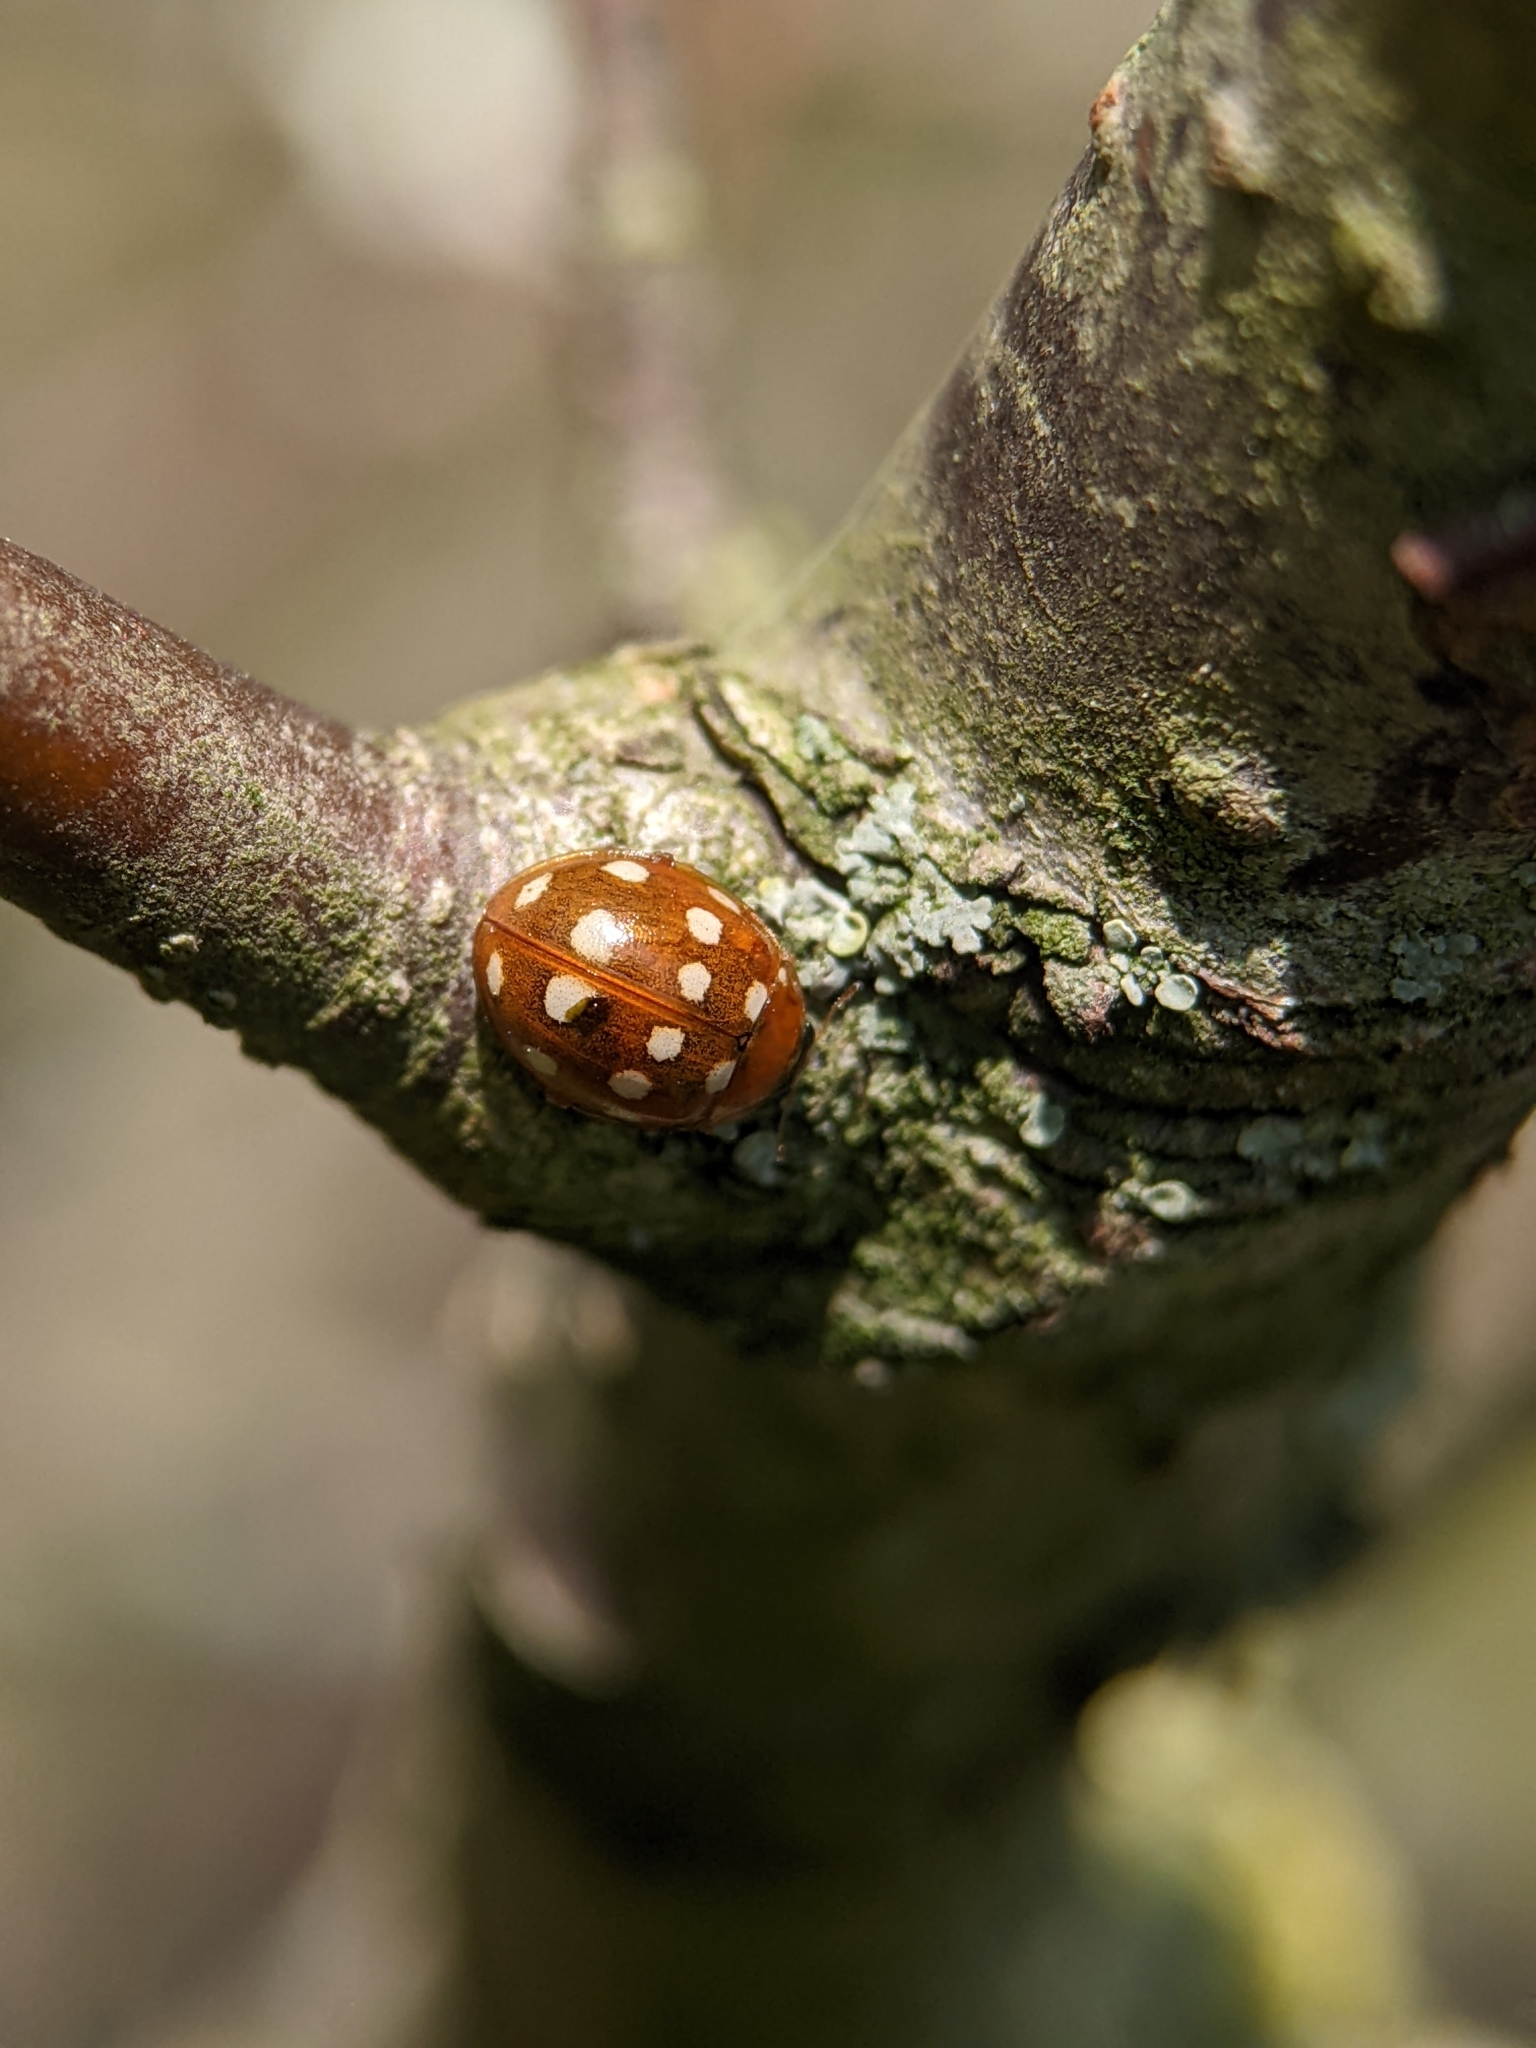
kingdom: Animalia
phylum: Arthropoda
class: Insecta
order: Coleoptera
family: Coccinellidae
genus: Calvia
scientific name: Calvia quatuordecimguttata
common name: Cream-spot ladybird
